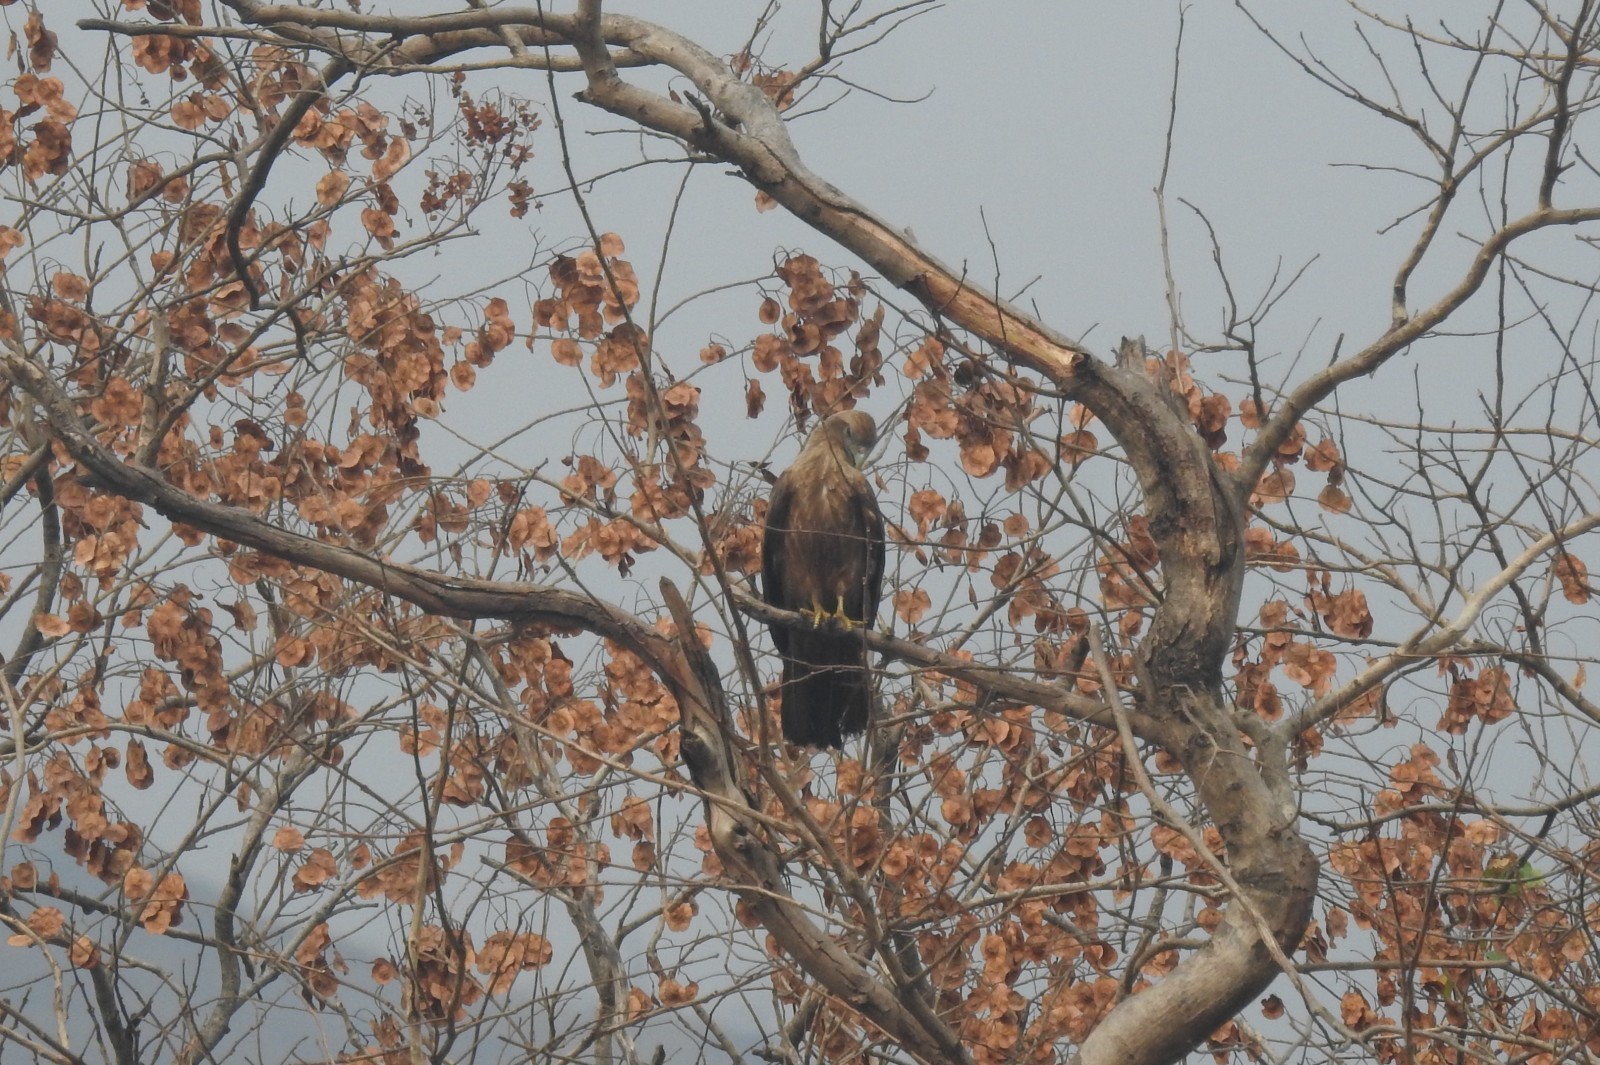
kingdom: Animalia
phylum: Chordata
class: Aves
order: Accipitriformes
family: Accipitridae
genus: Haliastur
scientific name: Haliastur indus
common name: Brahminy kite
